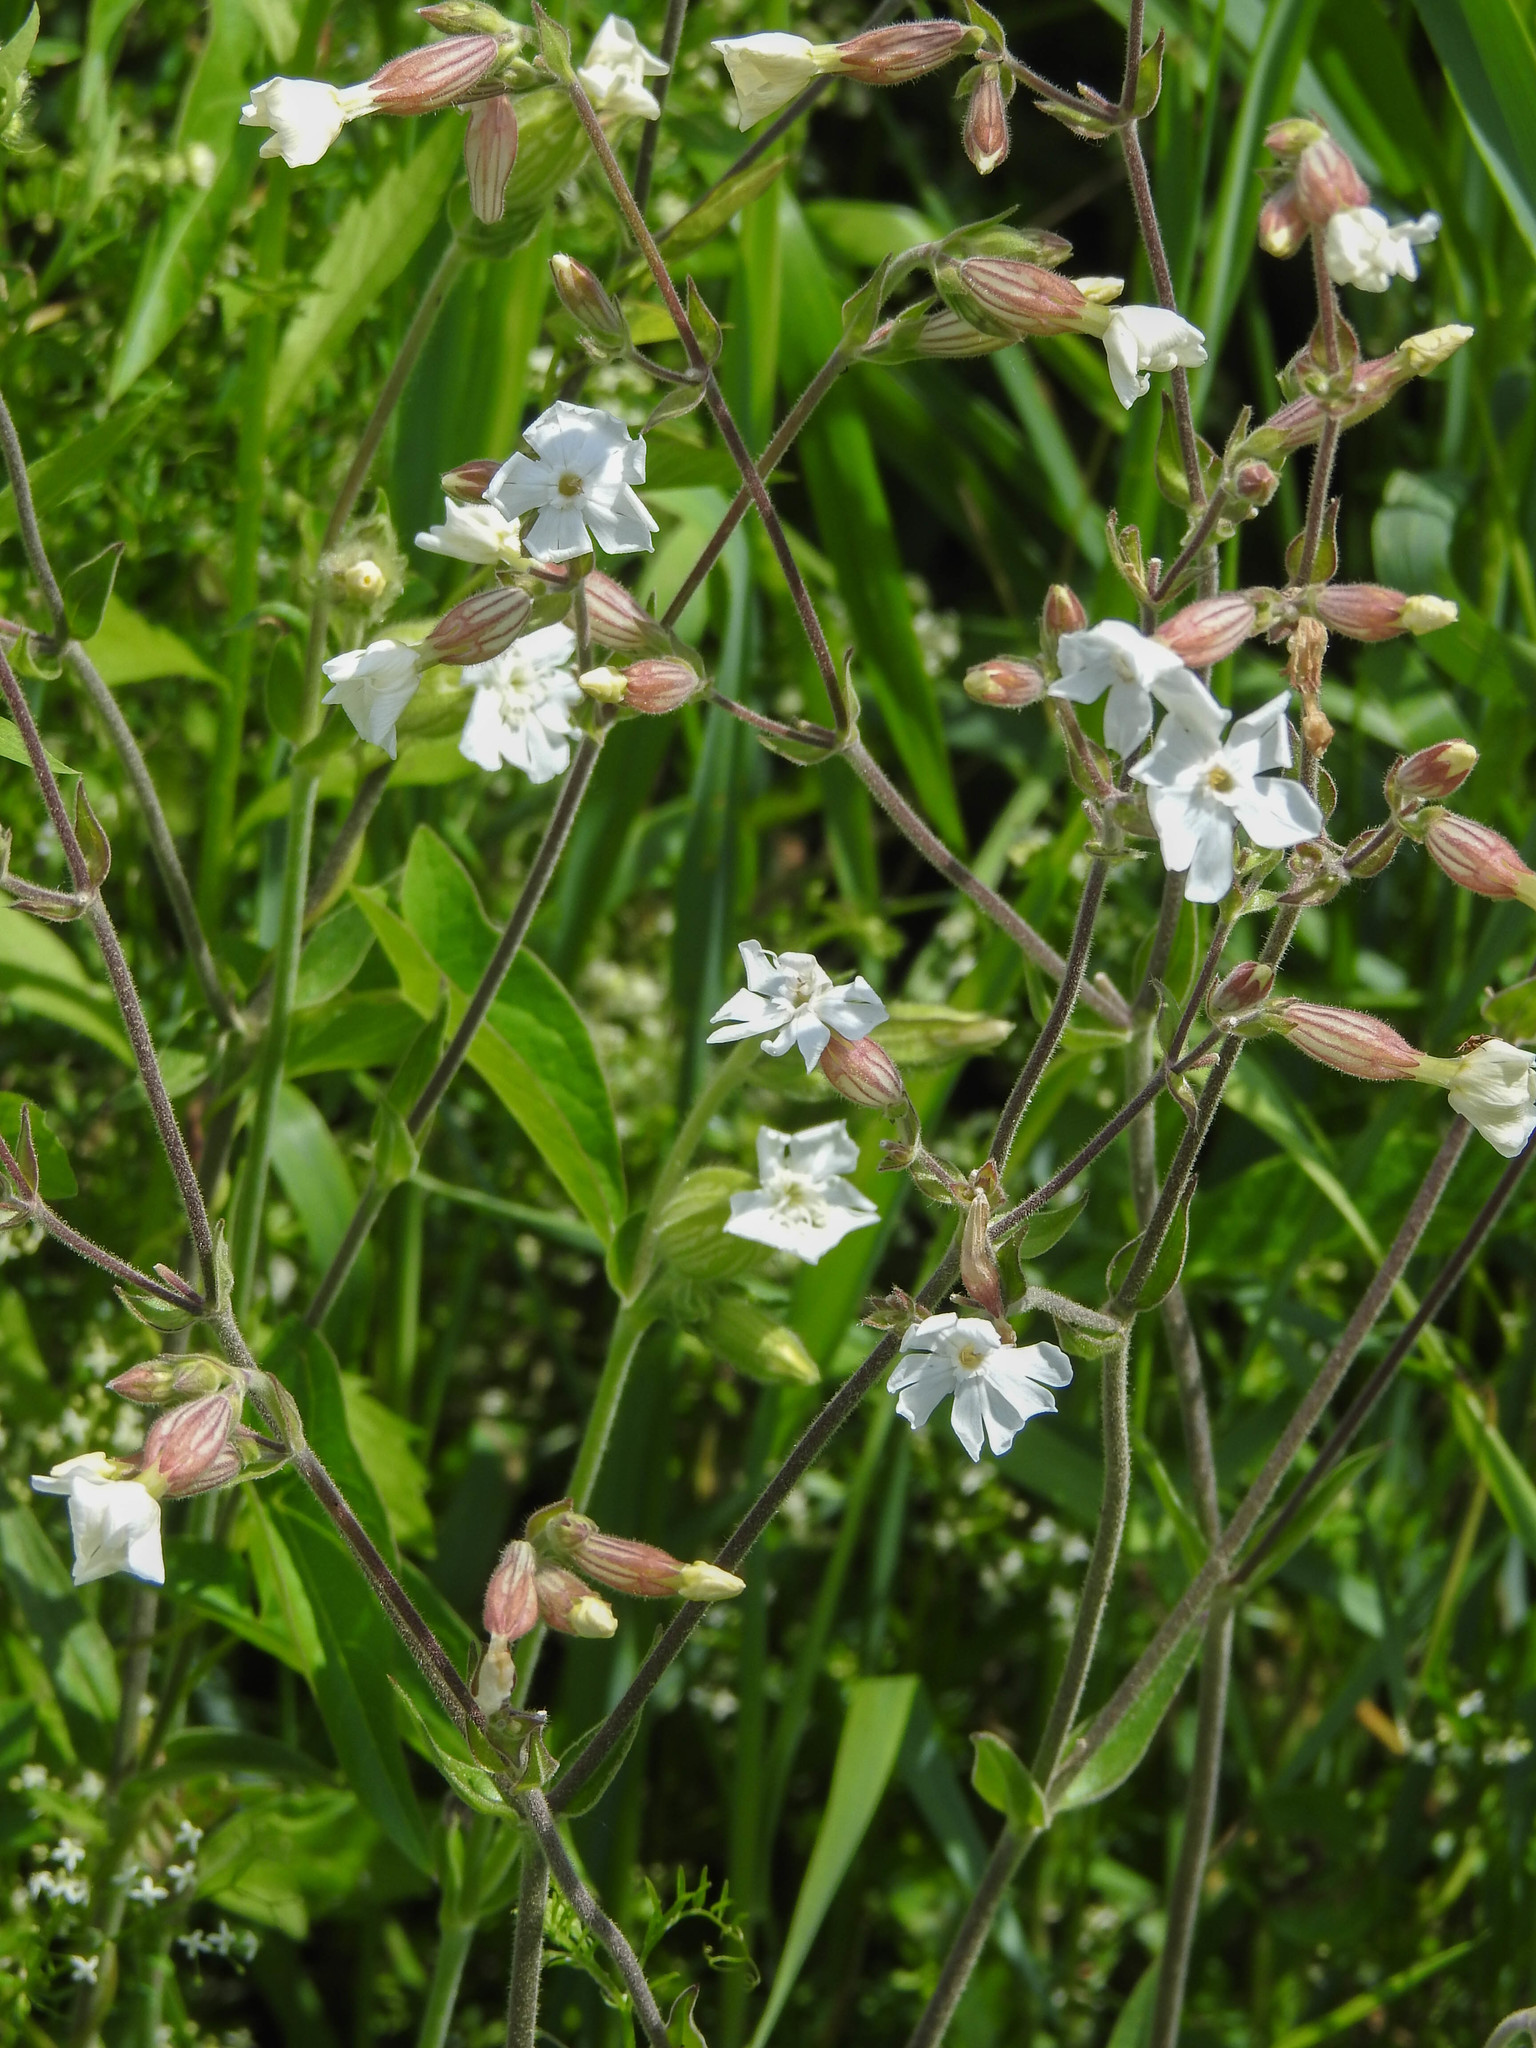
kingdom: Plantae
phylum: Tracheophyta
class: Magnoliopsida
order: Caryophyllales
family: Caryophyllaceae
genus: Silene
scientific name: Silene latifolia
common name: White campion
